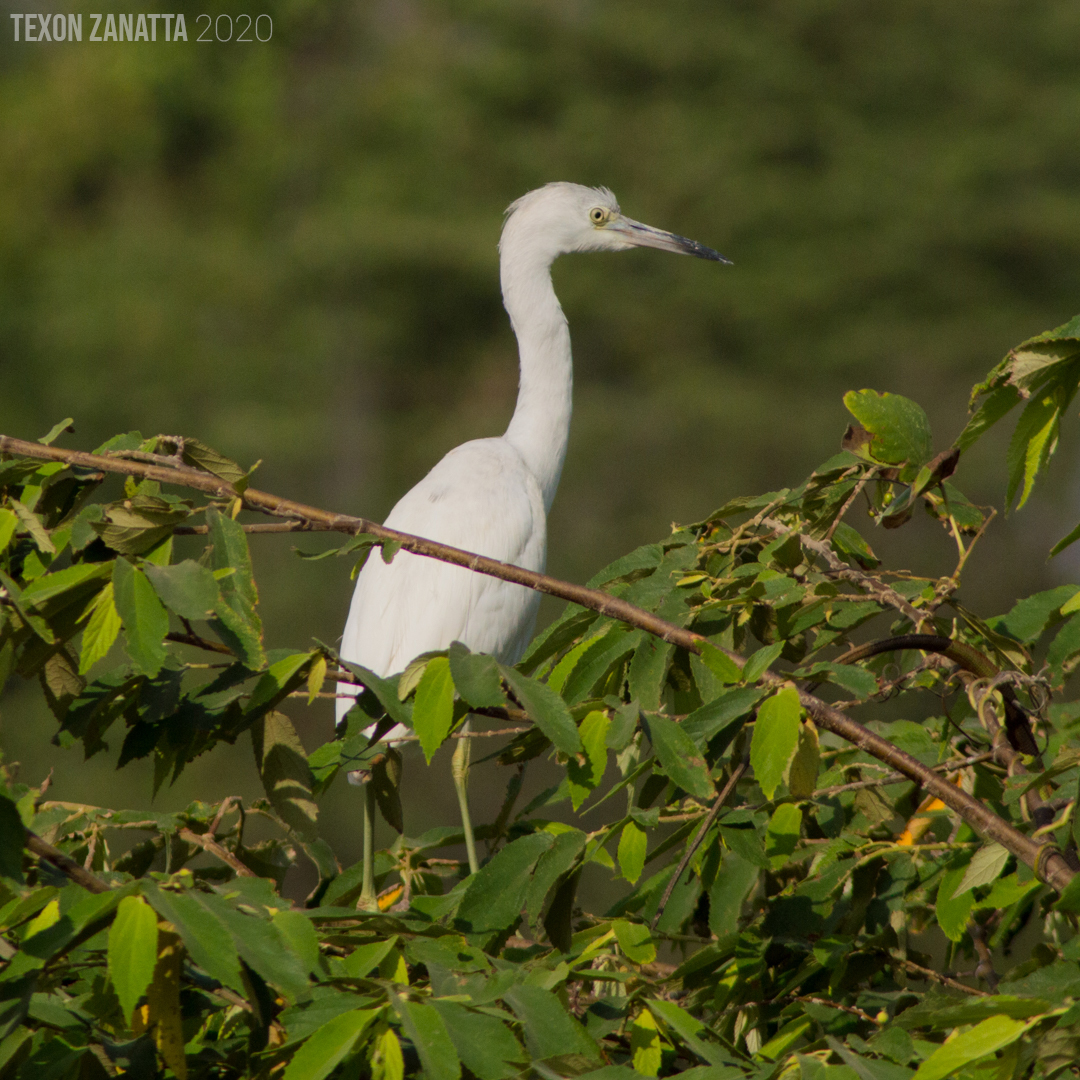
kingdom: Animalia
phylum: Chordata
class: Aves
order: Pelecaniformes
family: Ardeidae
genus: Egretta
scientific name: Egretta caerulea
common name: Little blue heron
